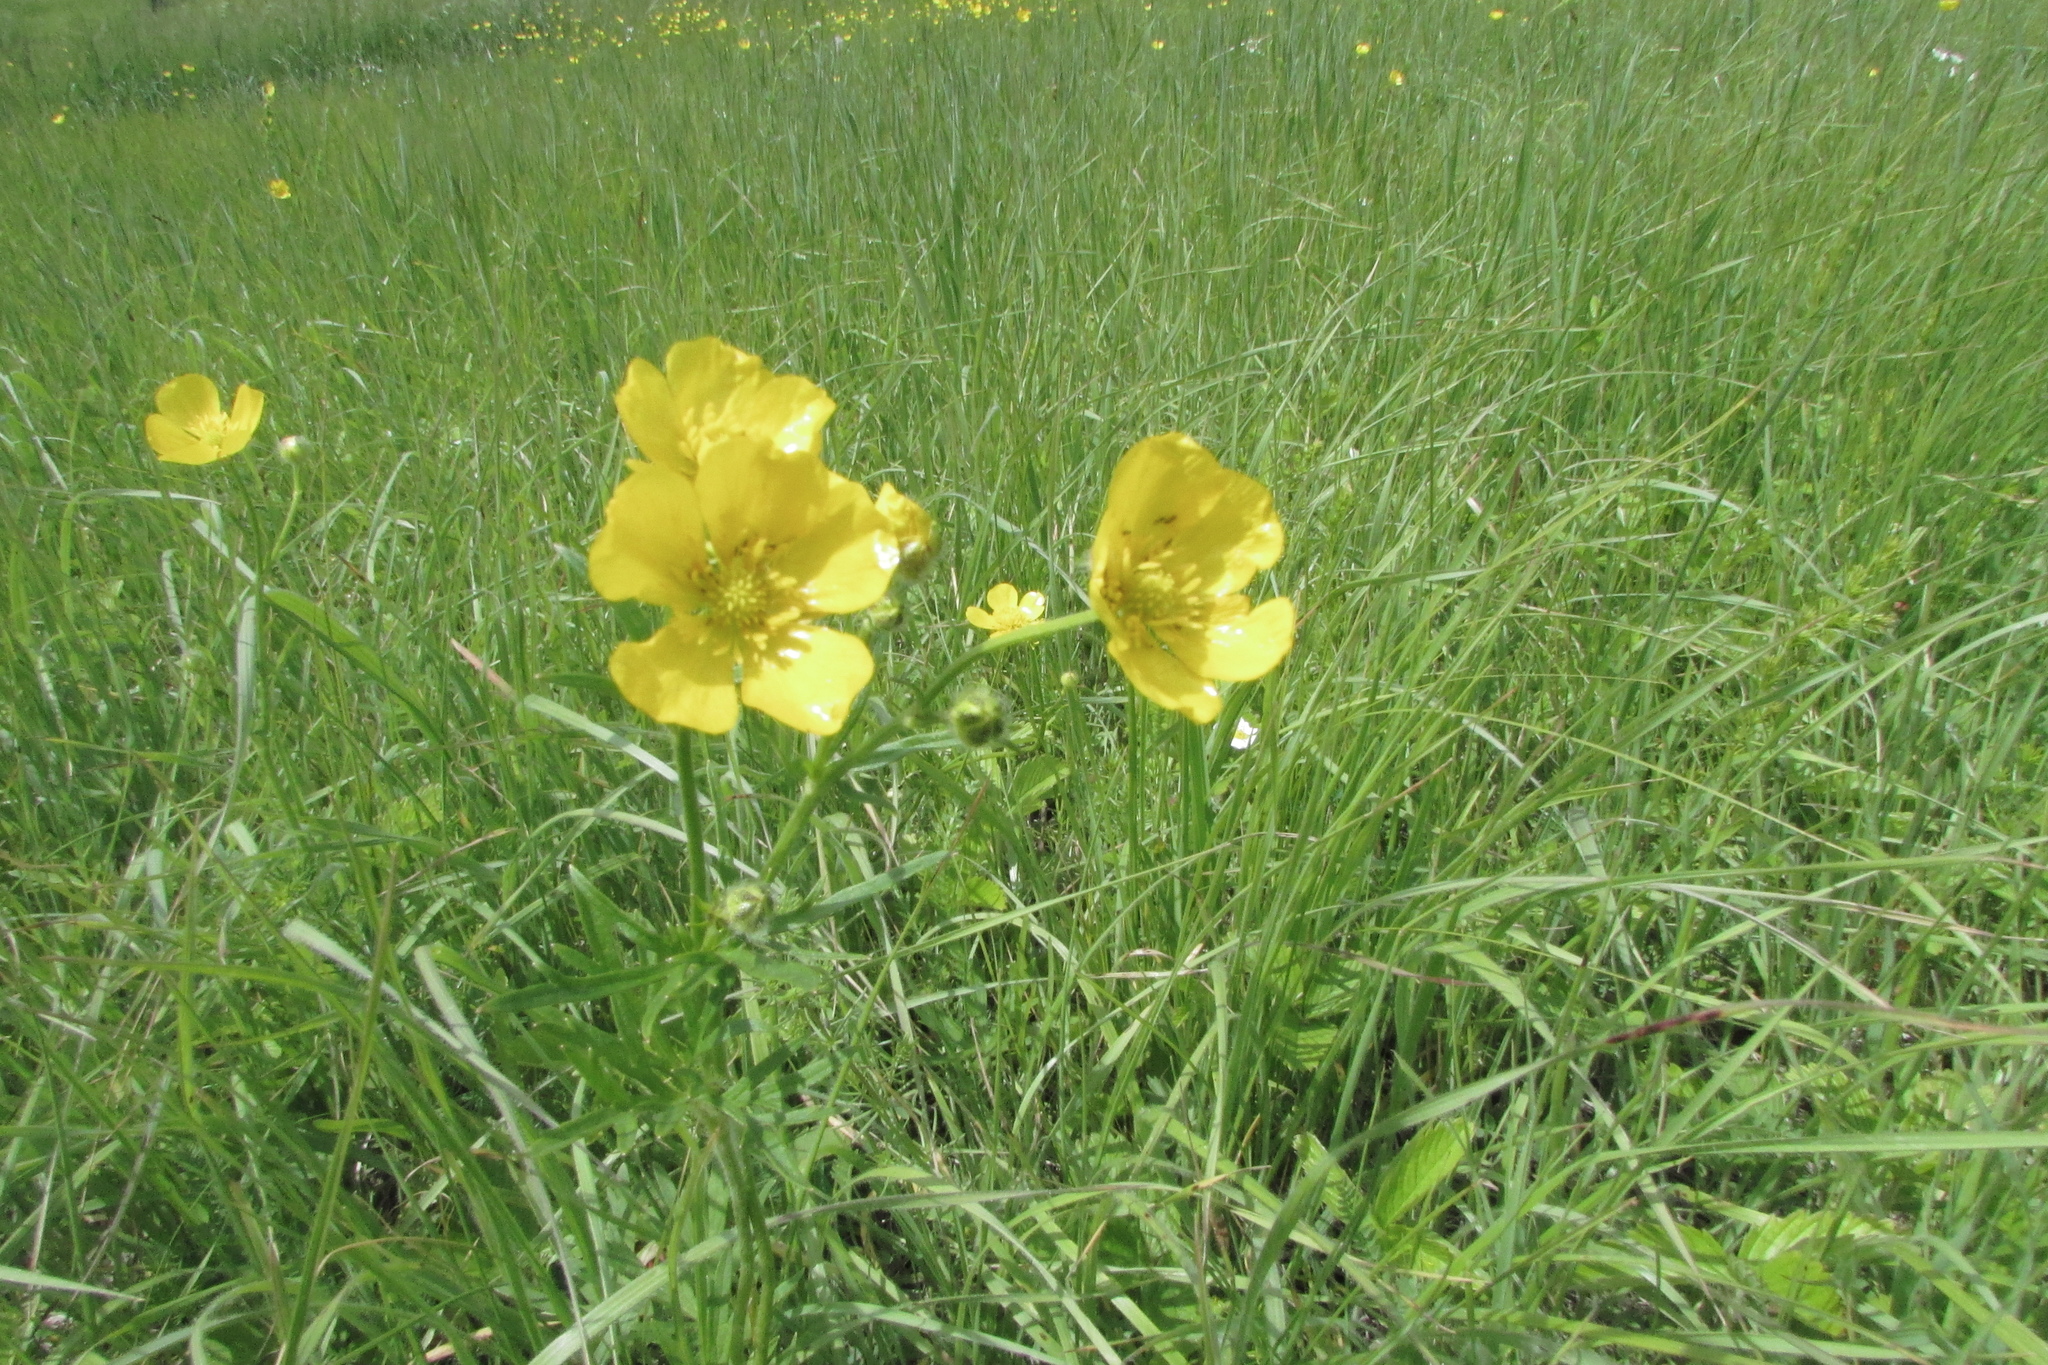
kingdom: Plantae
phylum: Tracheophyta
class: Magnoliopsida
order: Ranunculales
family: Ranunculaceae
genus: Ranunculus
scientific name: Ranunculus polyanthemos
